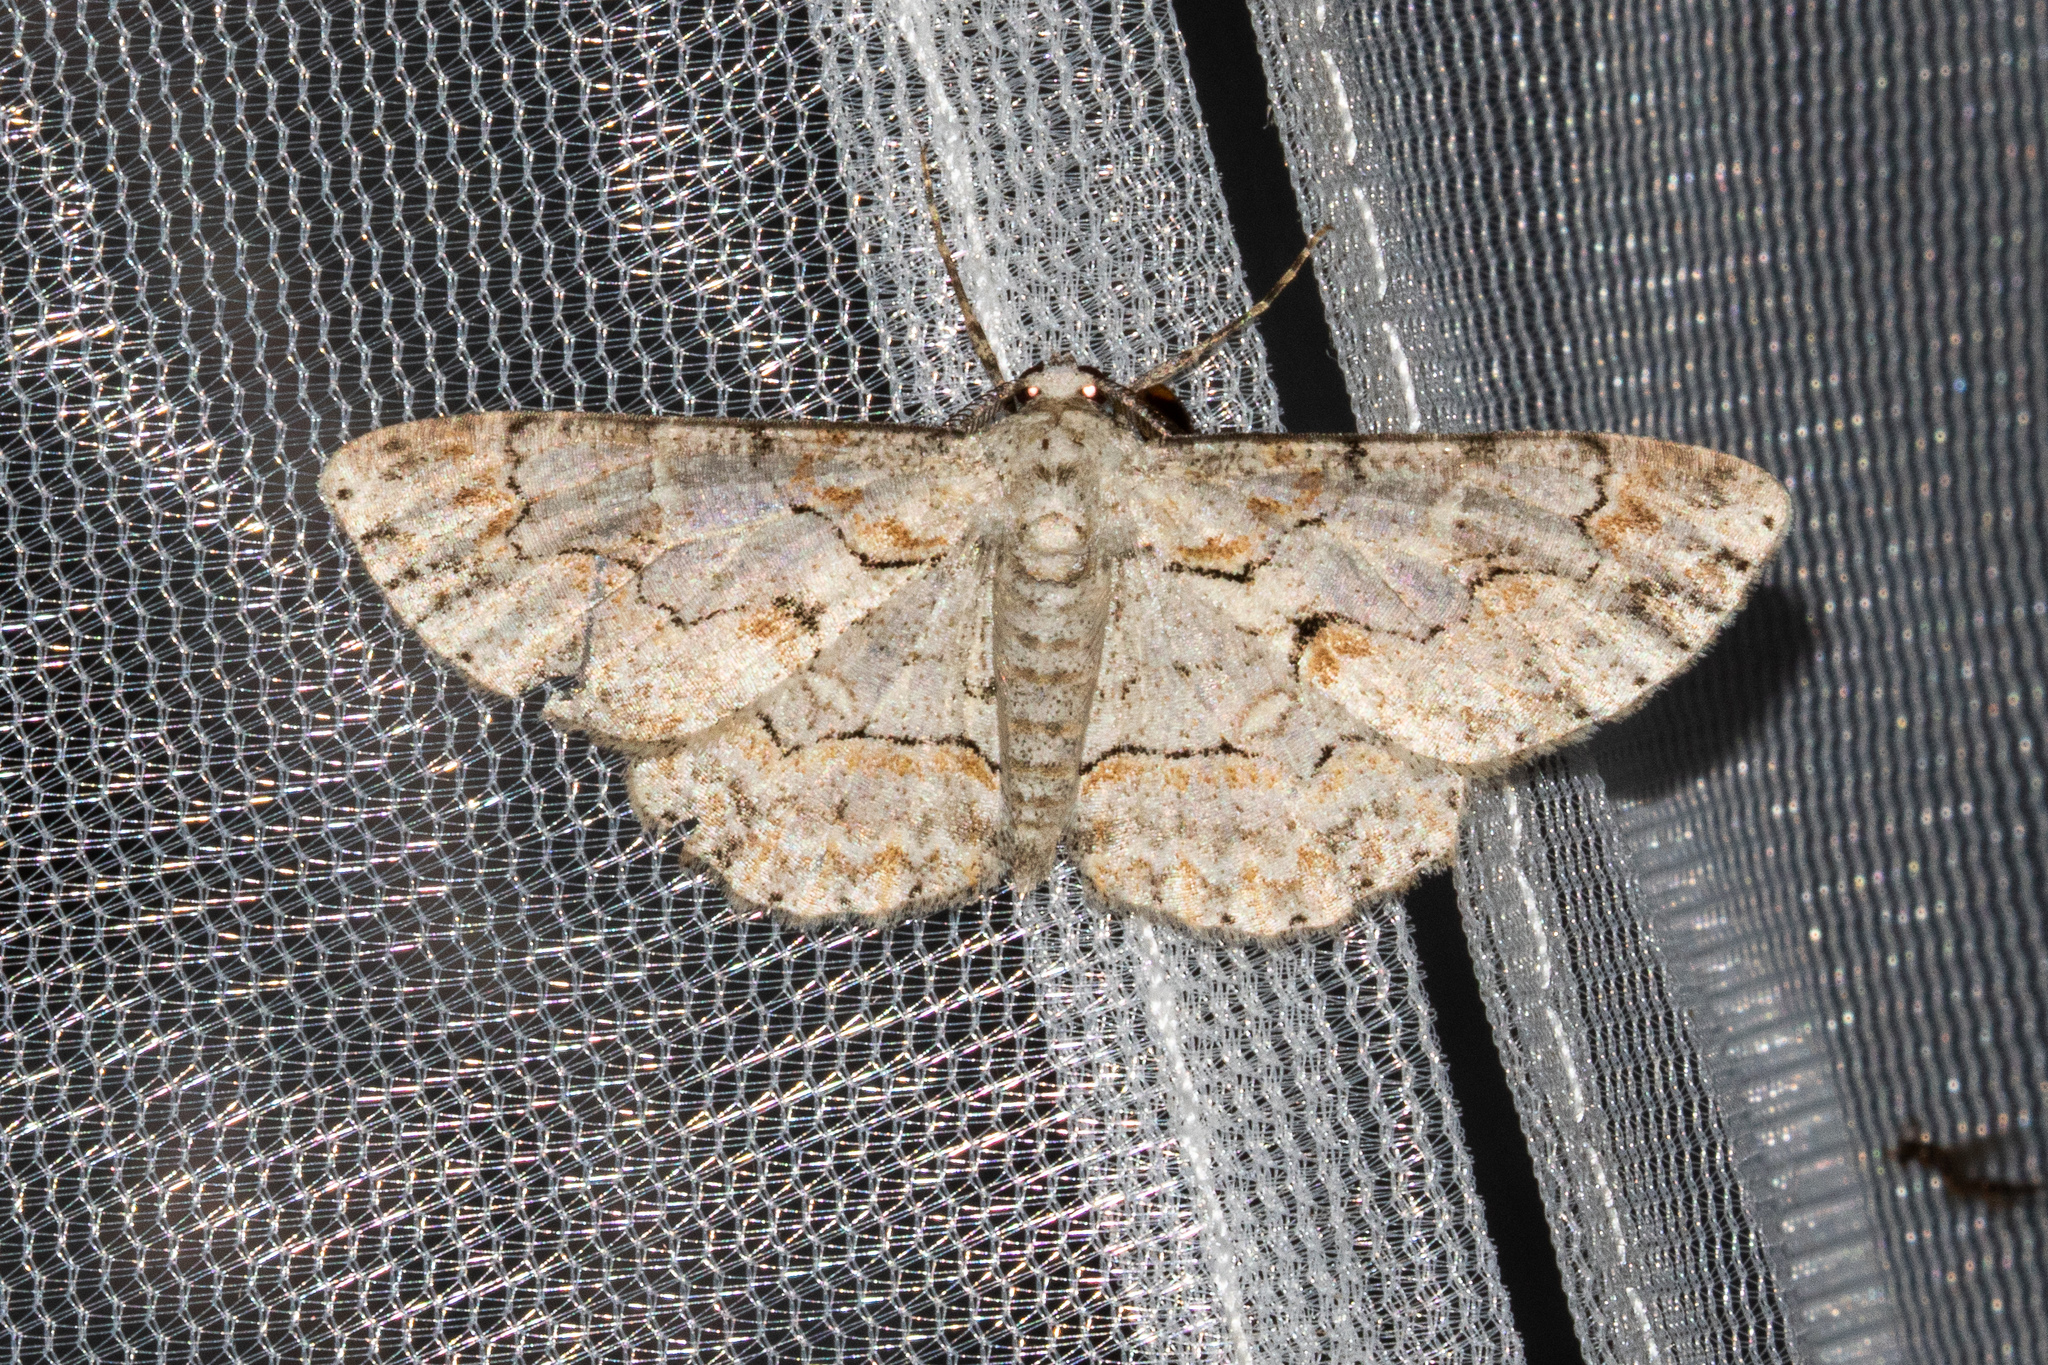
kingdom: Animalia
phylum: Arthropoda
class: Insecta
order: Lepidoptera
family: Geometridae
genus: Iridopsis
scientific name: Iridopsis defectaria
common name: Brown-shaded gray
